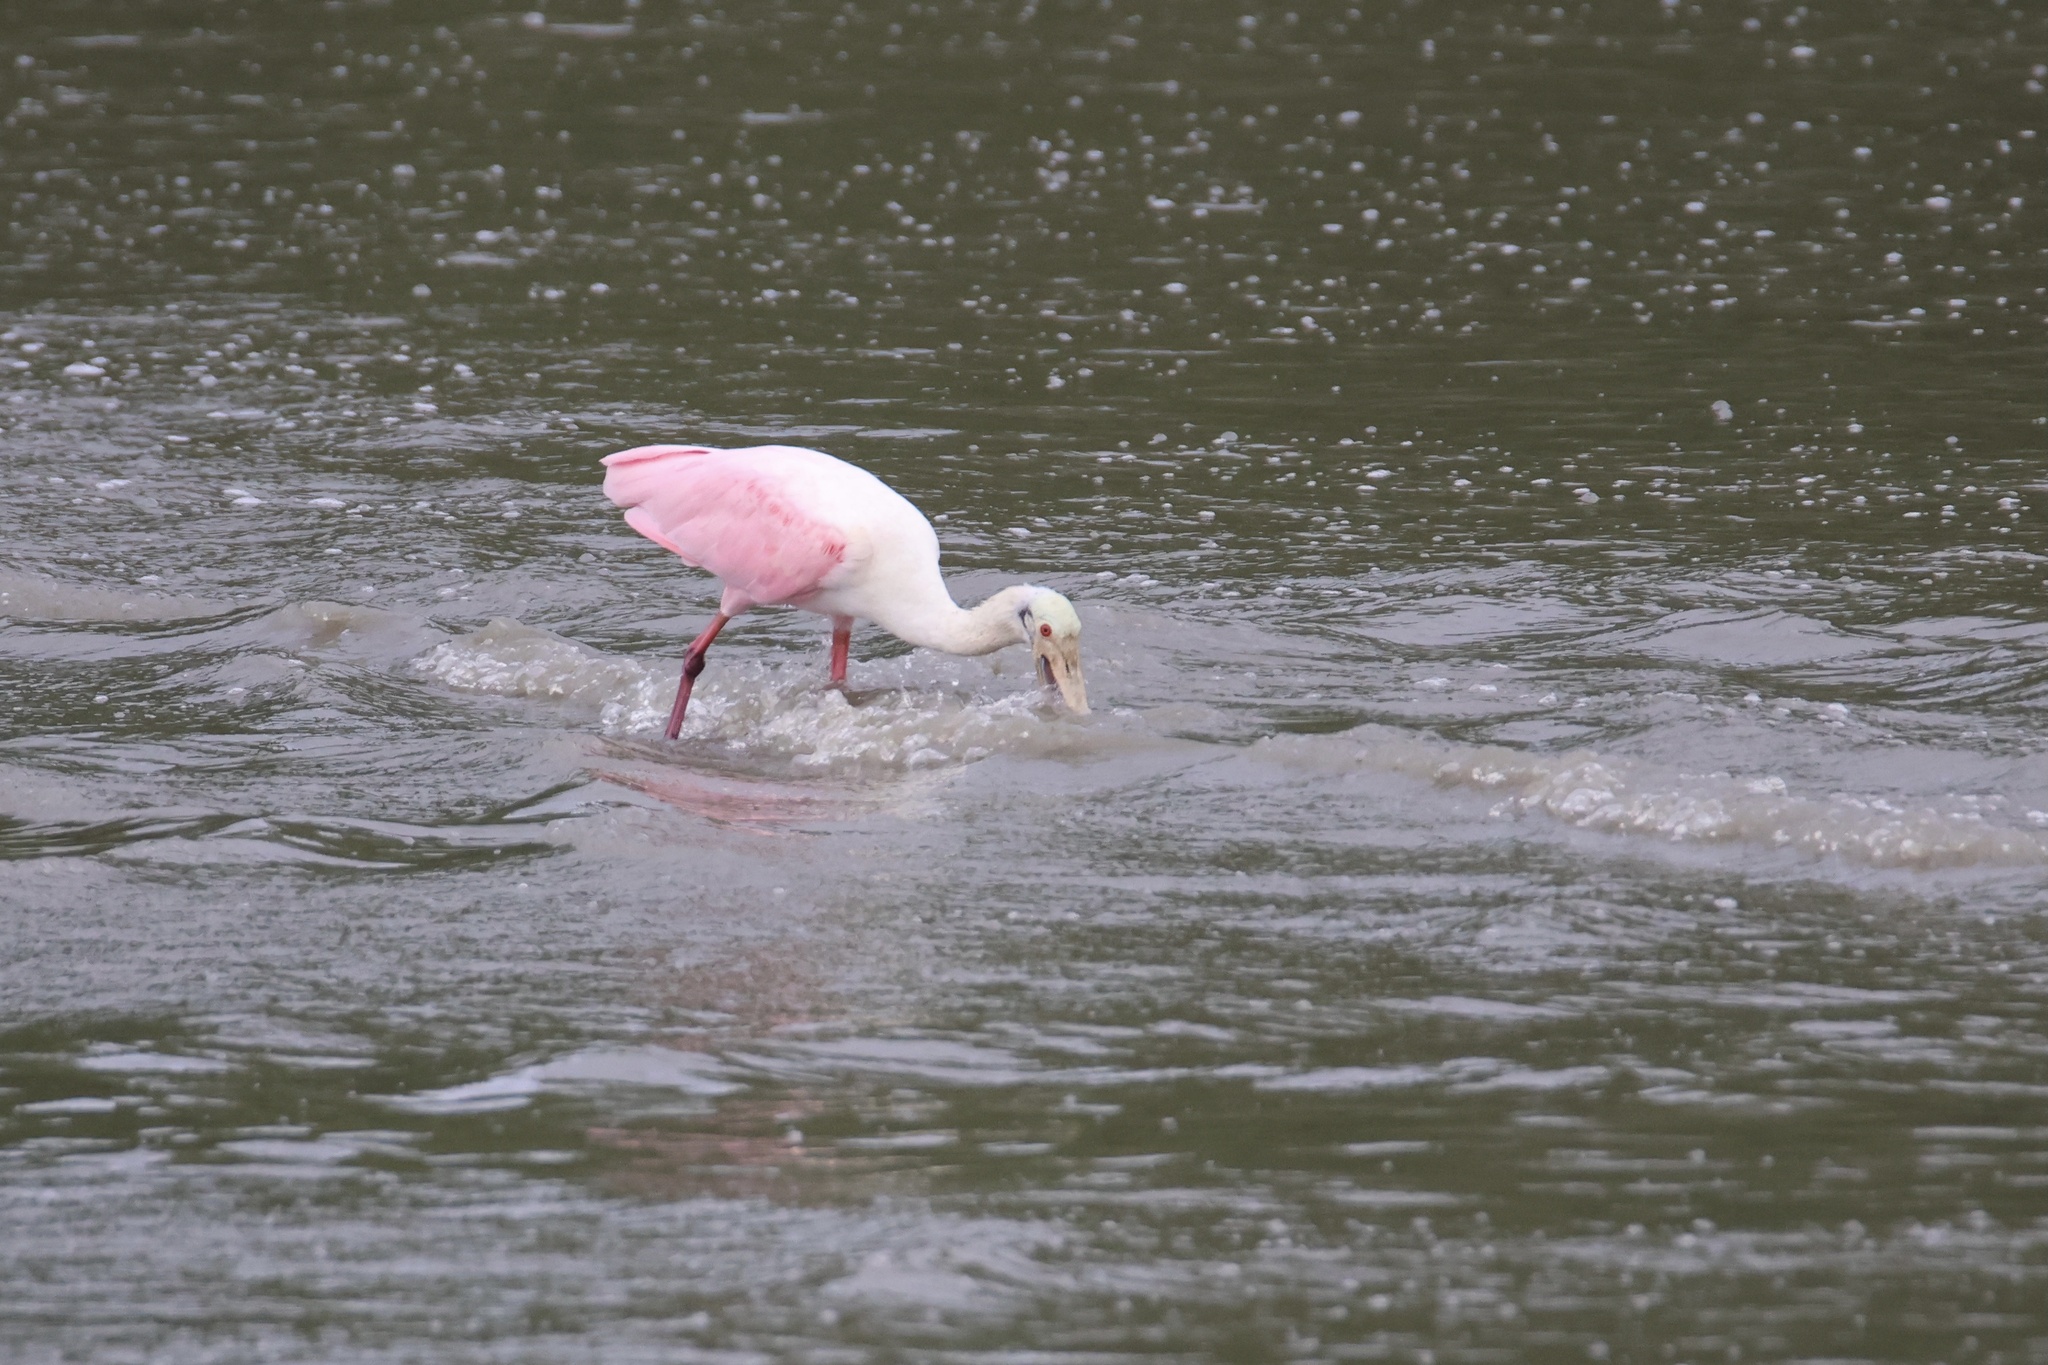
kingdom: Animalia
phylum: Chordata
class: Aves
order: Pelecaniformes
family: Threskiornithidae
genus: Platalea
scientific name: Platalea ajaja
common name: Roseate spoonbill
